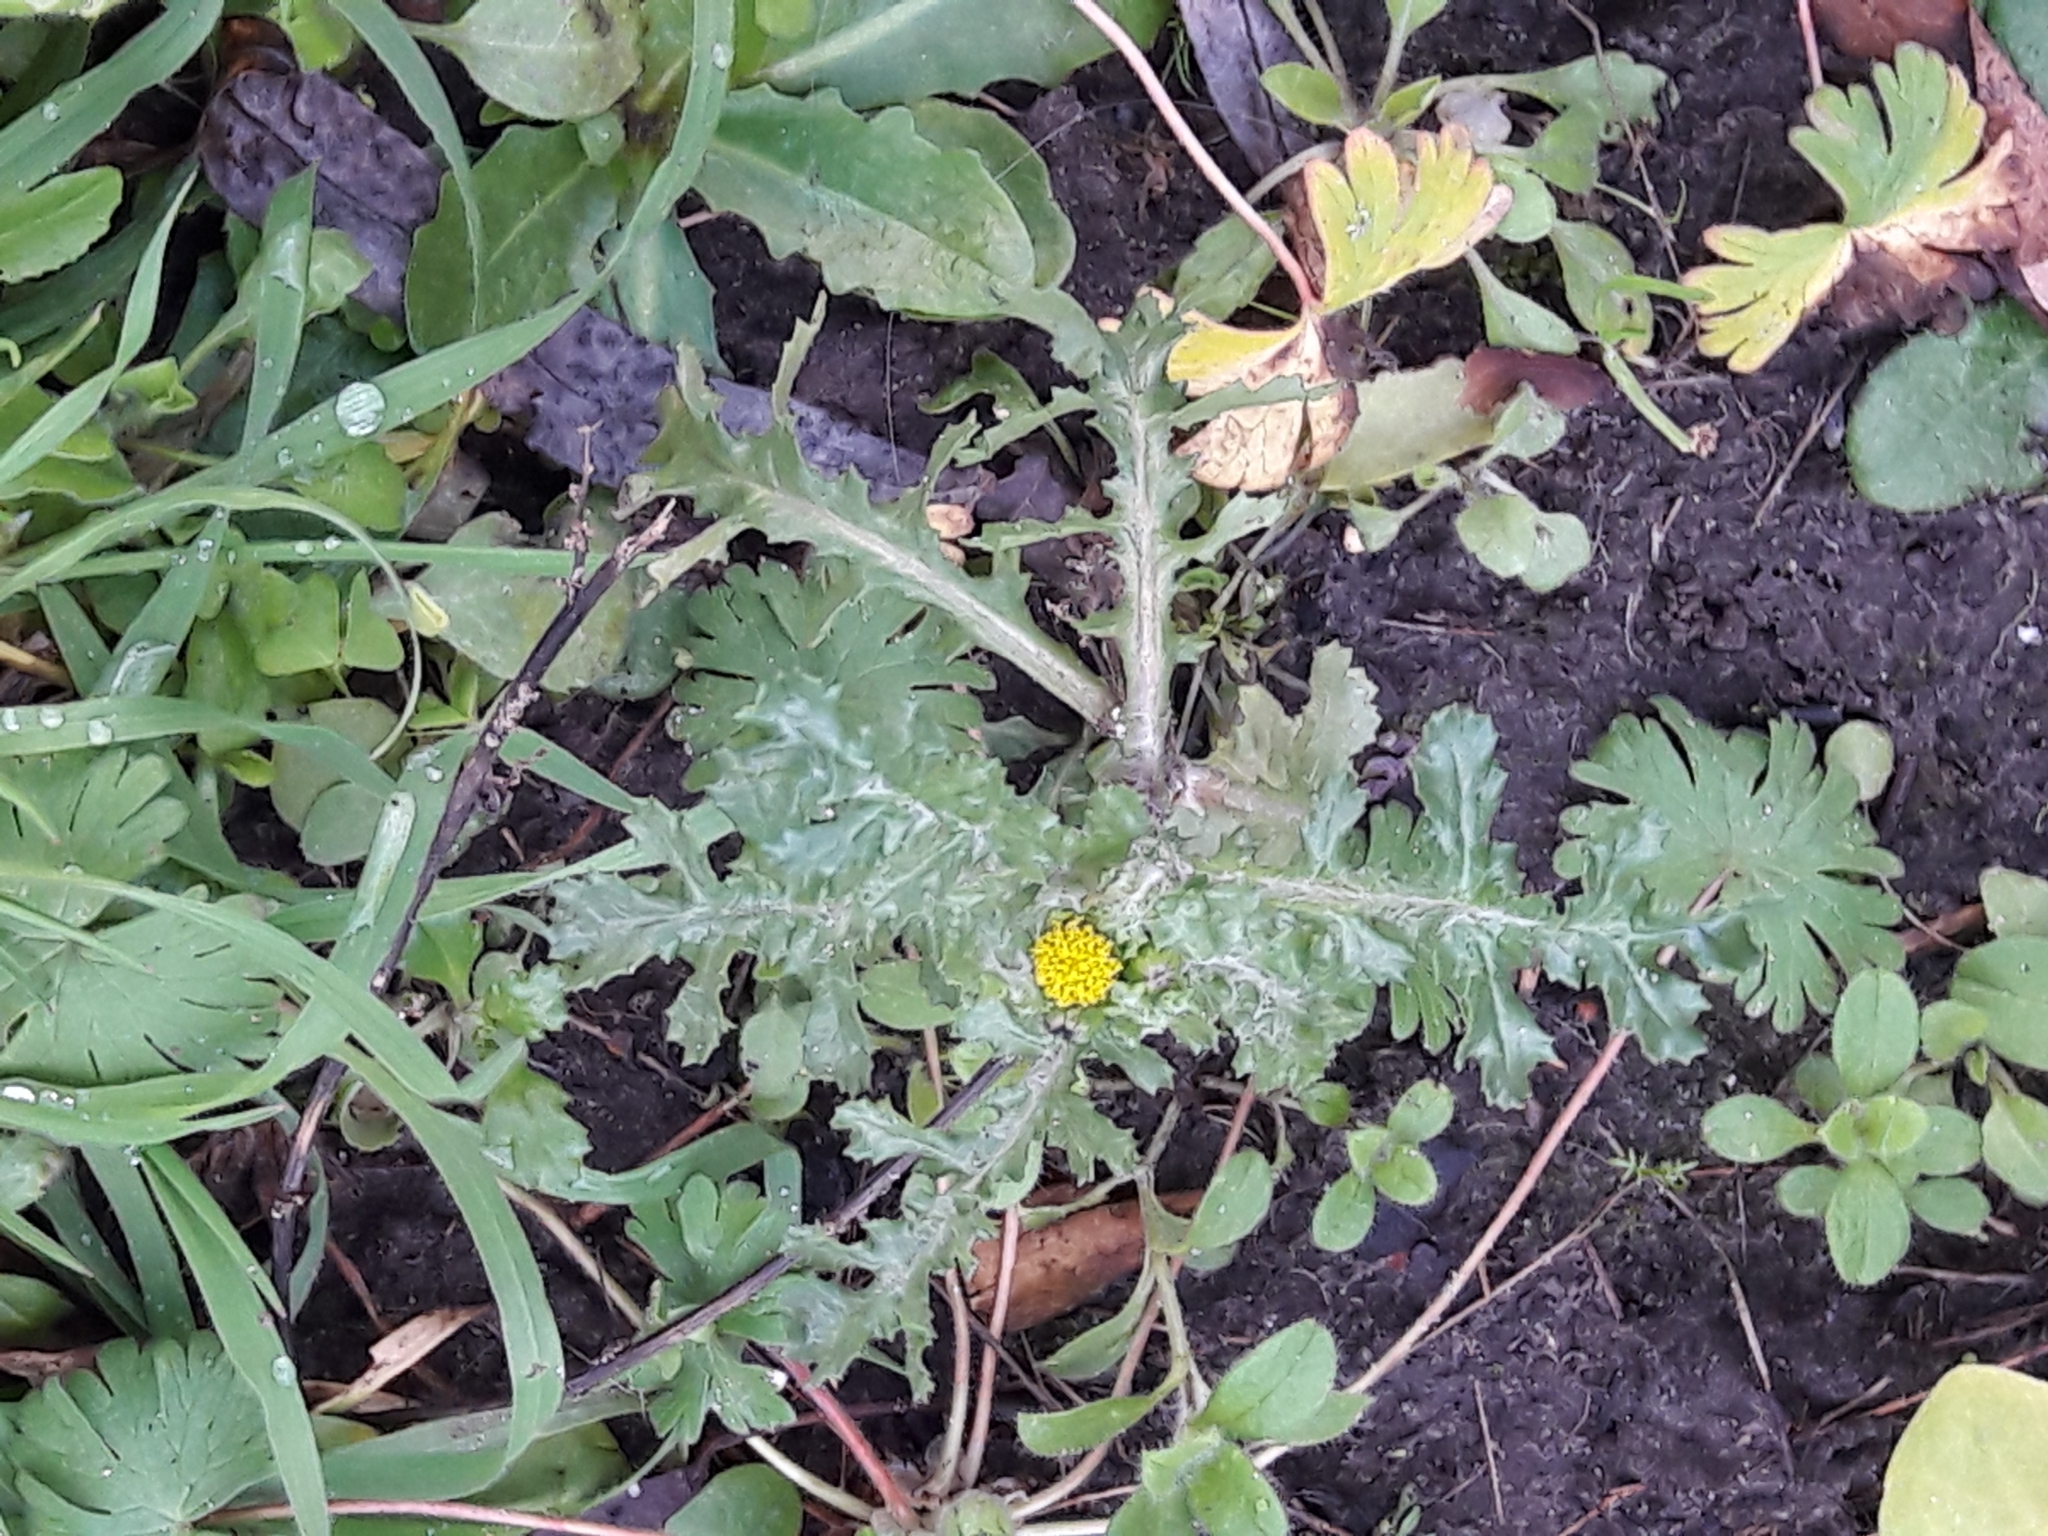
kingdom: Plantae
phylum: Tracheophyta
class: Magnoliopsida
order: Asterales
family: Asteraceae
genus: Senecio
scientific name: Senecio vulgaris
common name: Old-man-in-the-spring
